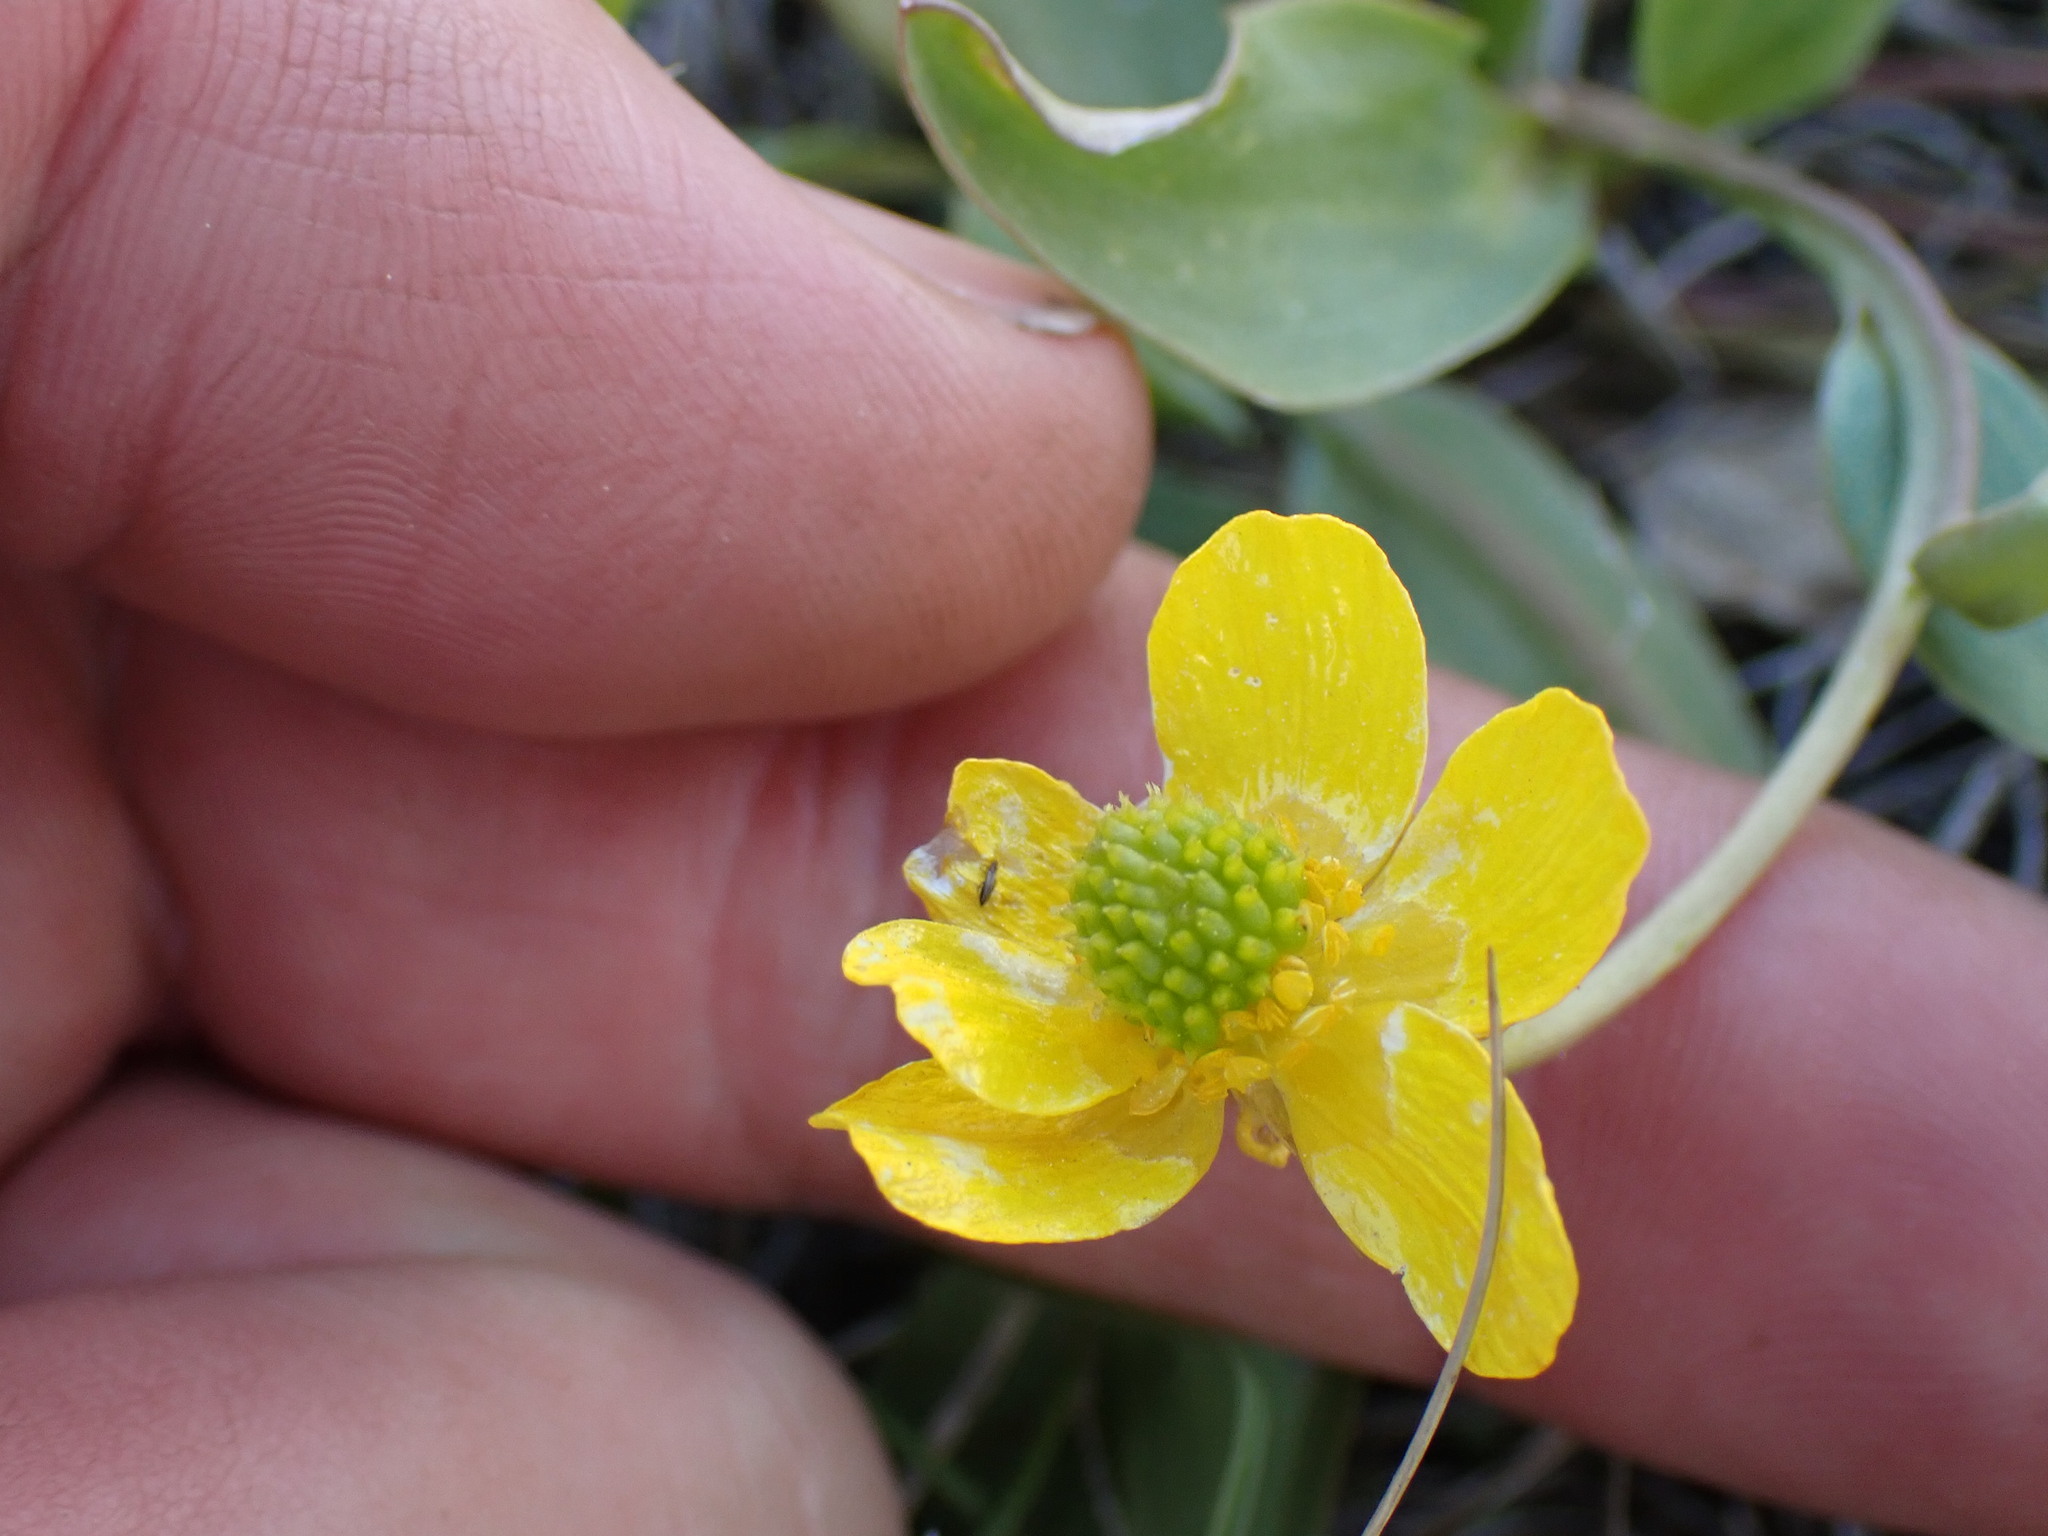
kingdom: Plantae
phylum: Tracheophyta
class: Magnoliopsida
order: Ranunculales
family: Ranunculaceae
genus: Ranunculus
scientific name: Ranunculus glaberrimus
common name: Sagebrush buttercup
